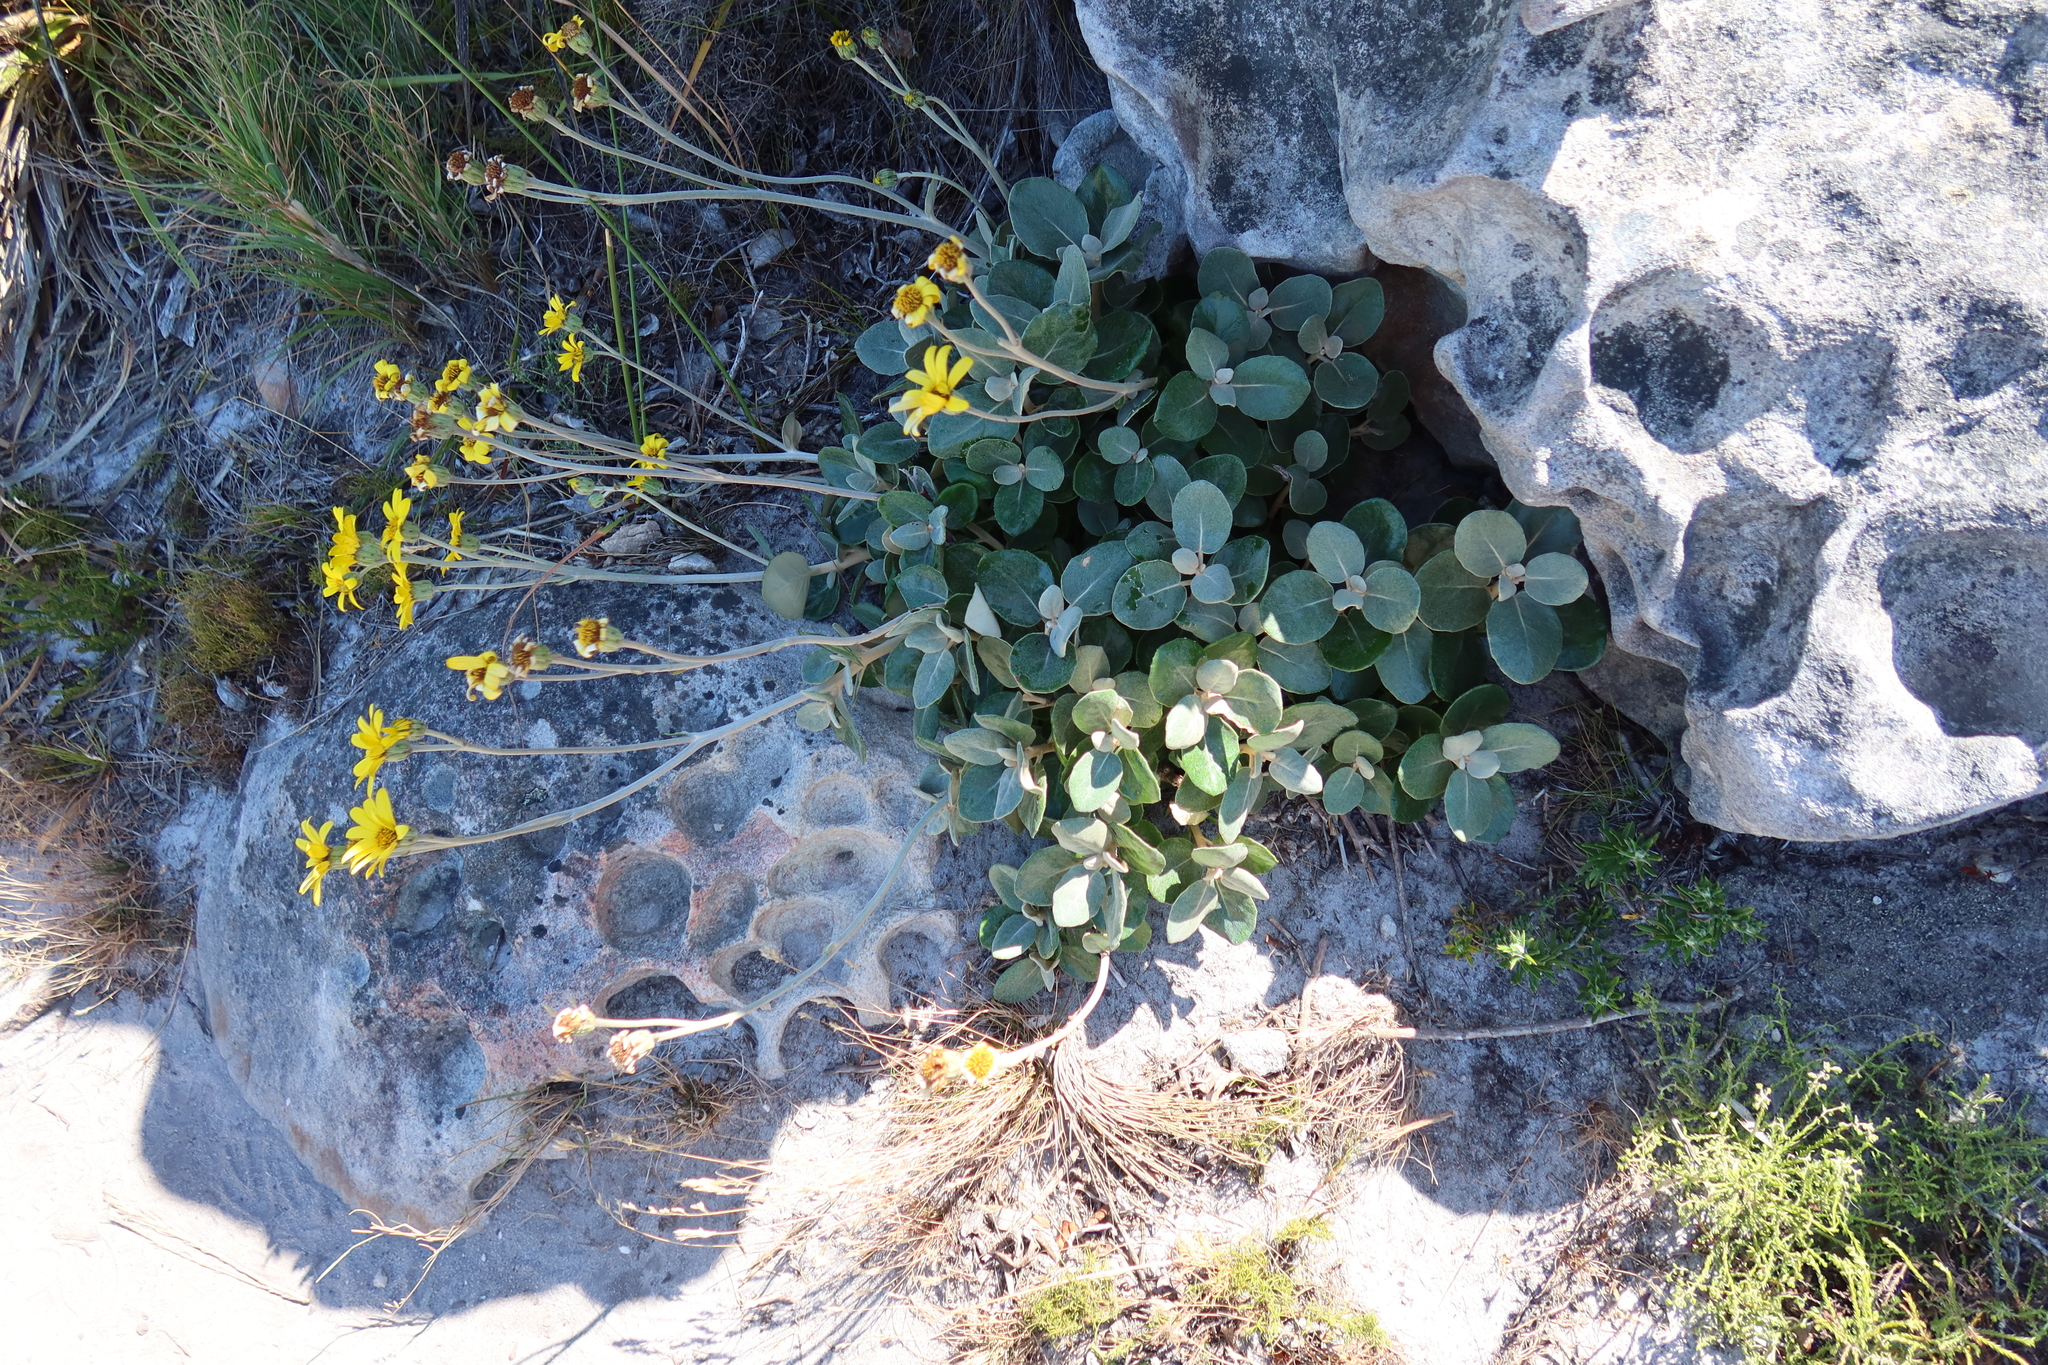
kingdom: Plantae
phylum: Tracheophyta
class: Magnoliopsida
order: Asterales
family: Asteraceae
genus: Capelio
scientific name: Capelio tabularis
